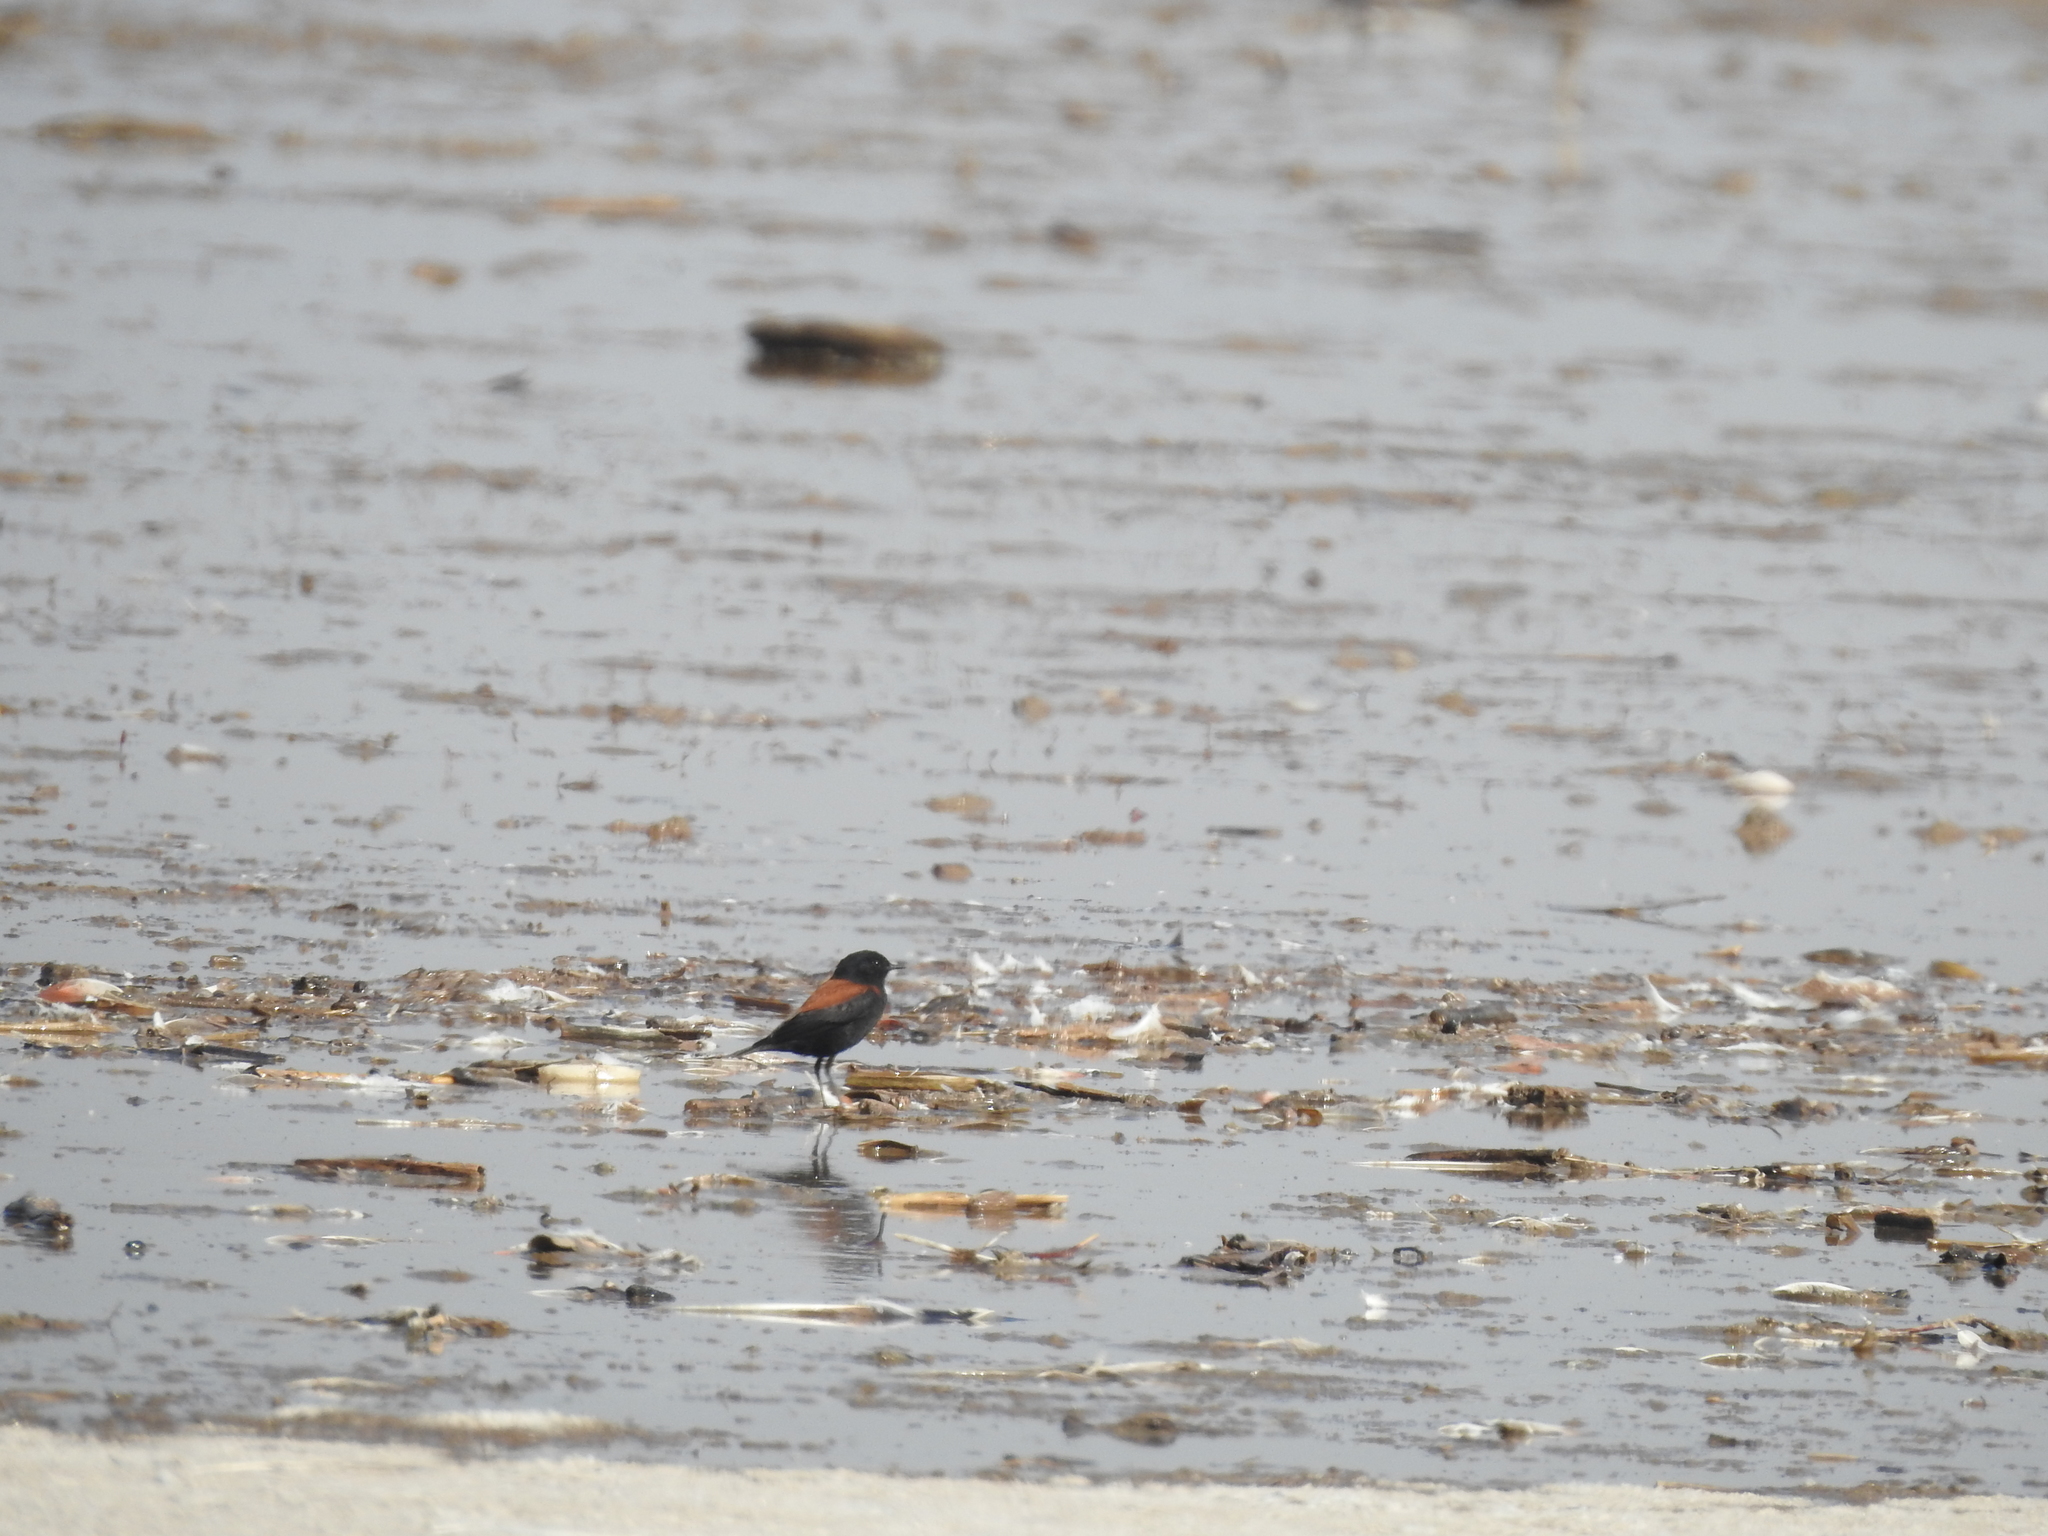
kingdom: Animalia
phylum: Chordata
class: Aves
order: Passeriformes
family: Tyrannidae
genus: Lessonia
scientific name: Lessonia rufa
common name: Austral negrito
